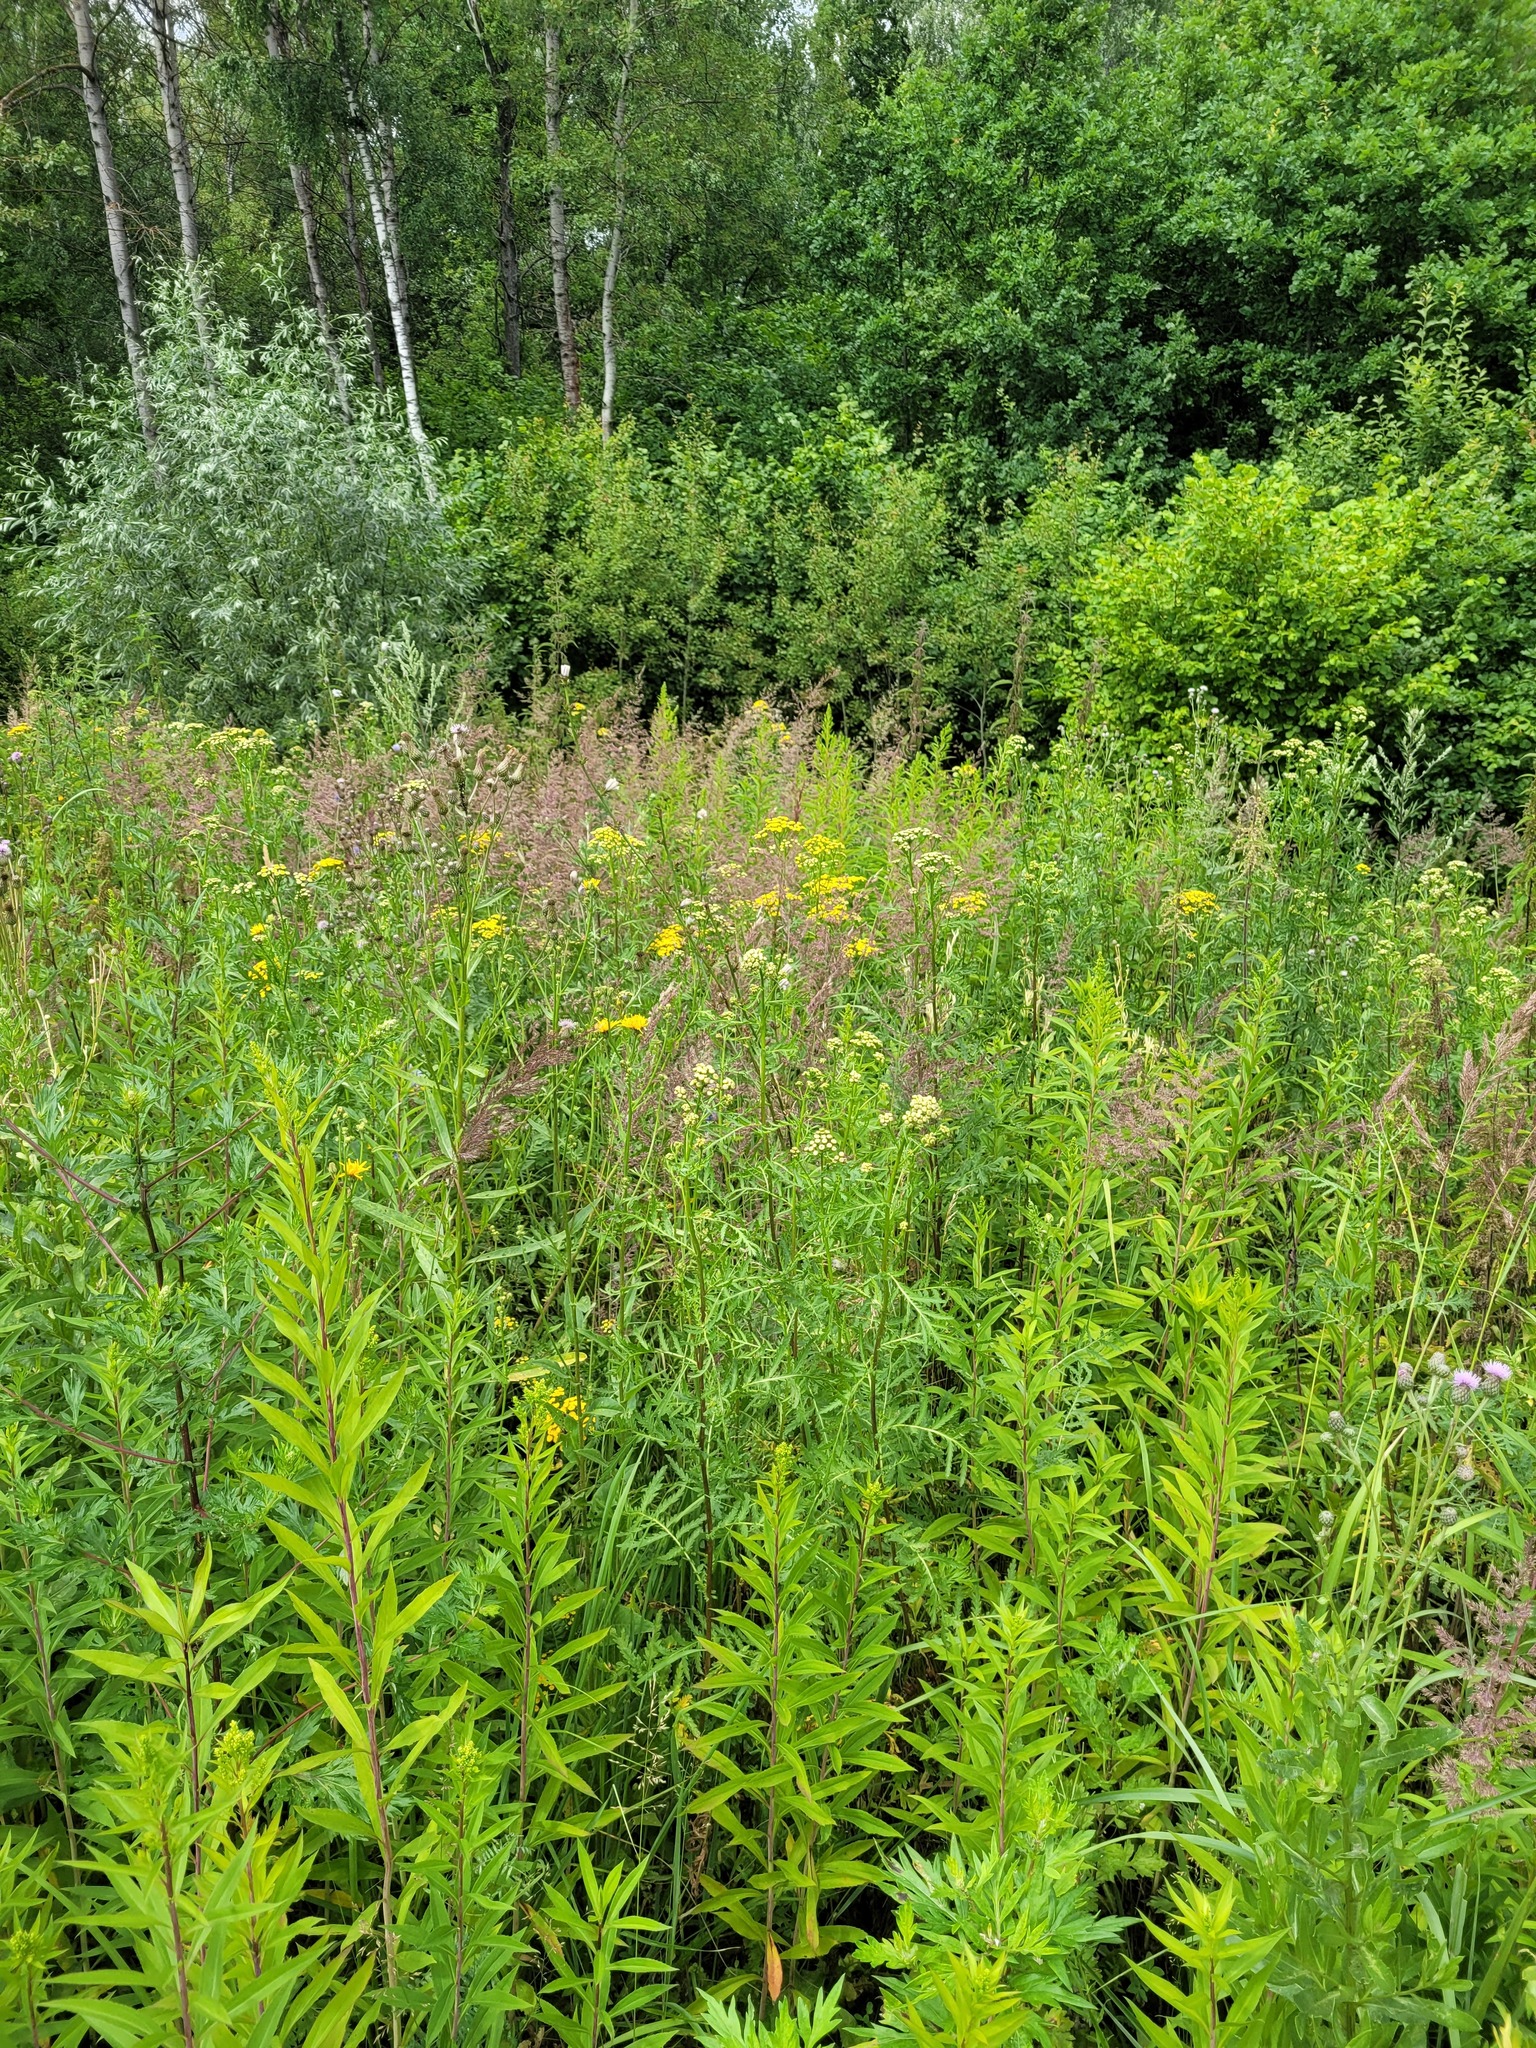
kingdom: Plantae
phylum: Tracheophyta
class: Magnoliopsida
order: Asterales
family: Asteraceae
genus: Tanacetum
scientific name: Tanacetum vulgare
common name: Common tansy
